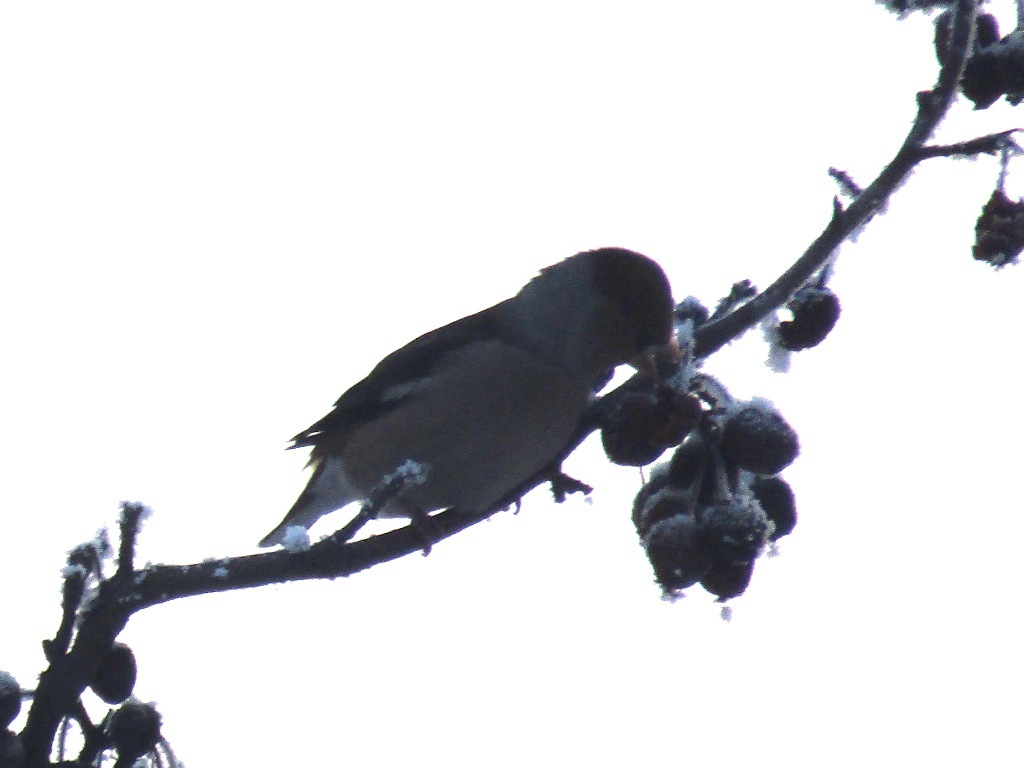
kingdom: Animalia
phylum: Chordata
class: Aves
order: Passeriformes
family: Fringillidae
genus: Coccothraustes
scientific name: Coccothraustes coccothraustes
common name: Hawfinch
